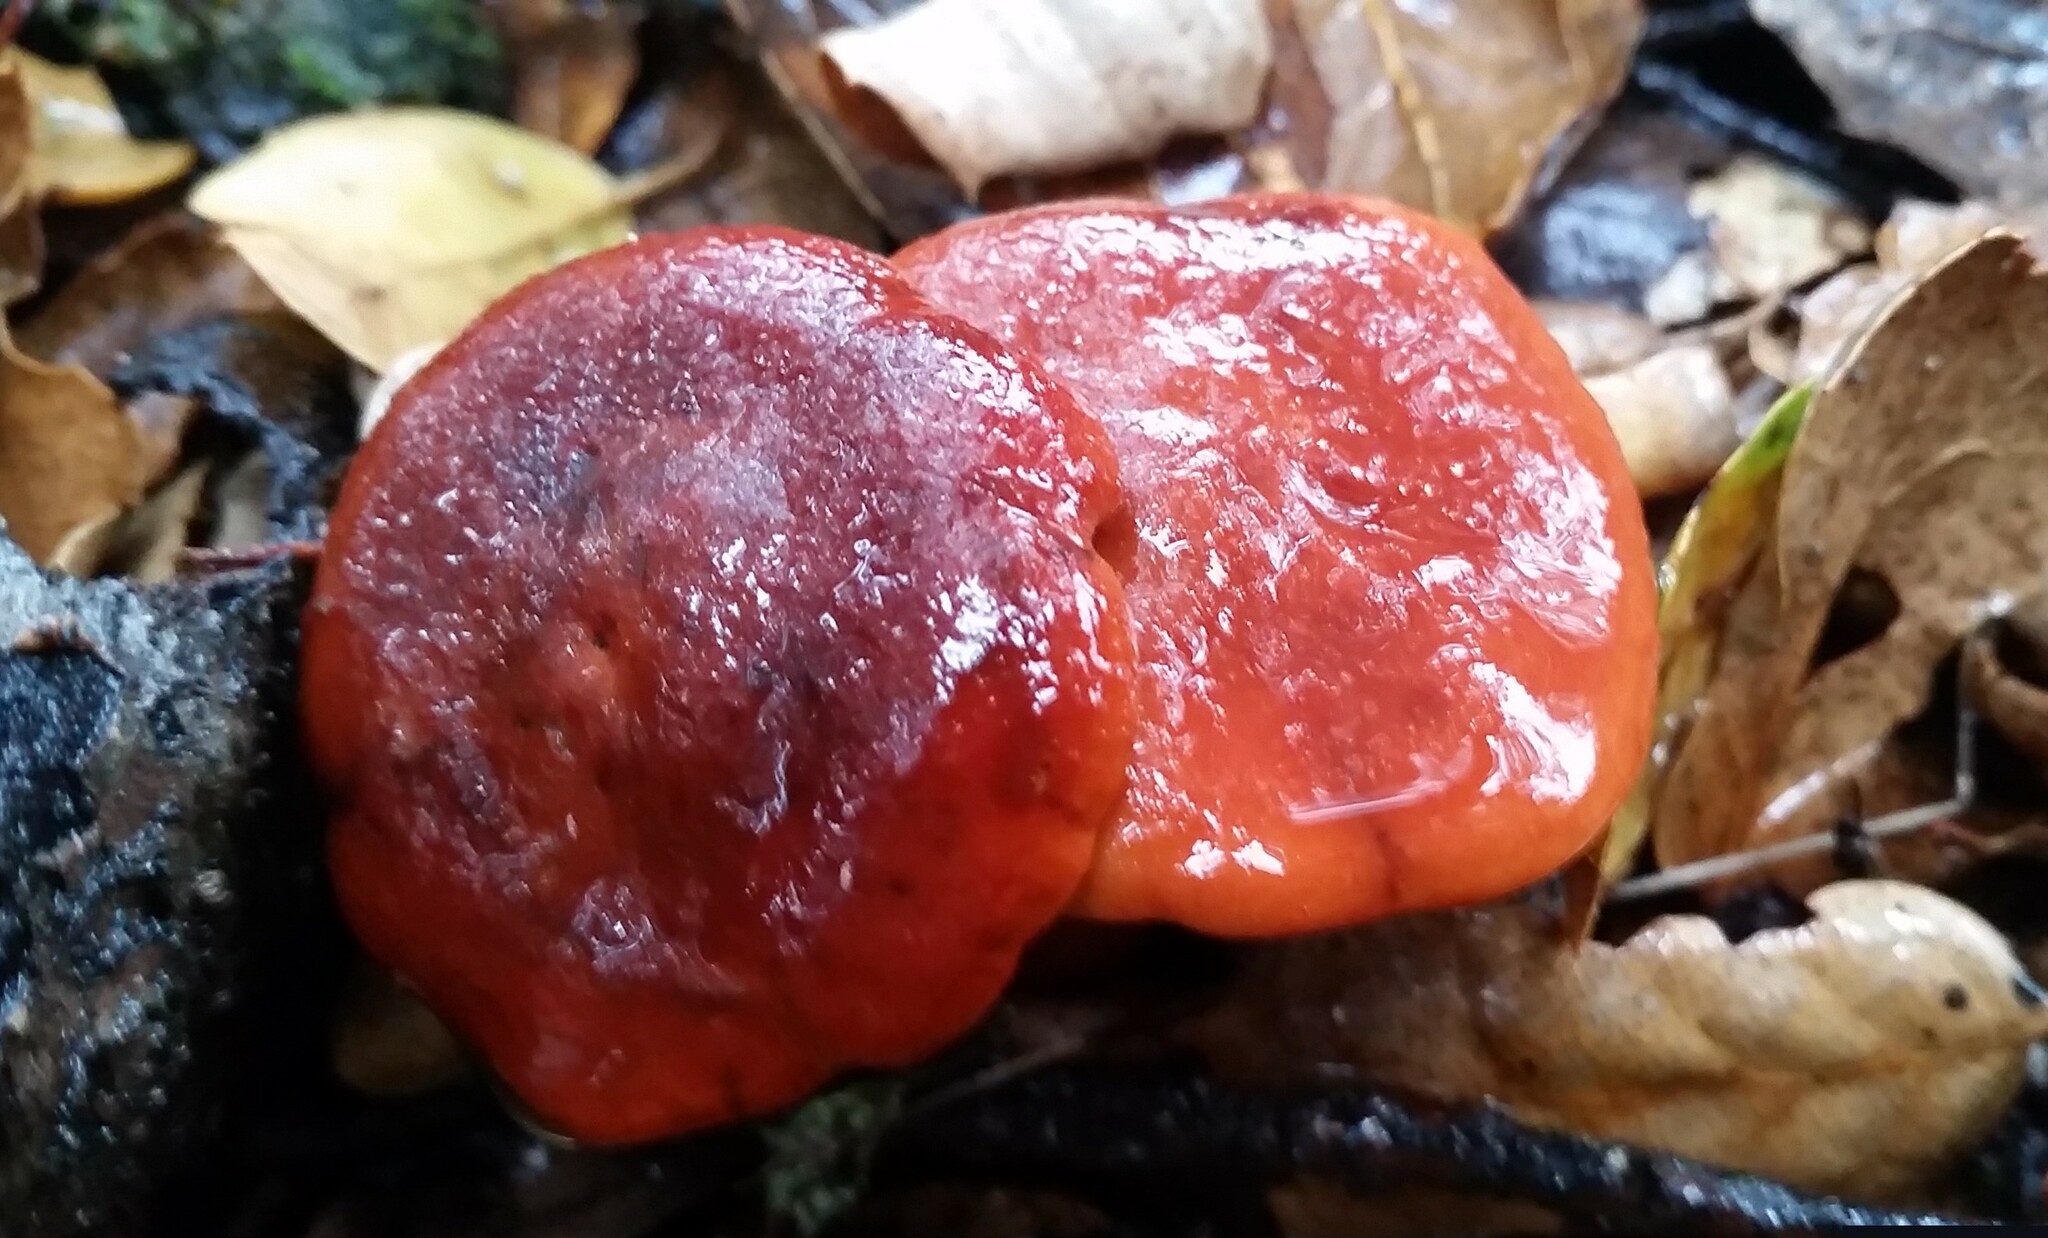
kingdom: Fungi
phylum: Basidiomycota
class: Agaricomycetes
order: Russulales
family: Russulaceae
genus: Lactarius
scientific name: Lactarius rufulus
